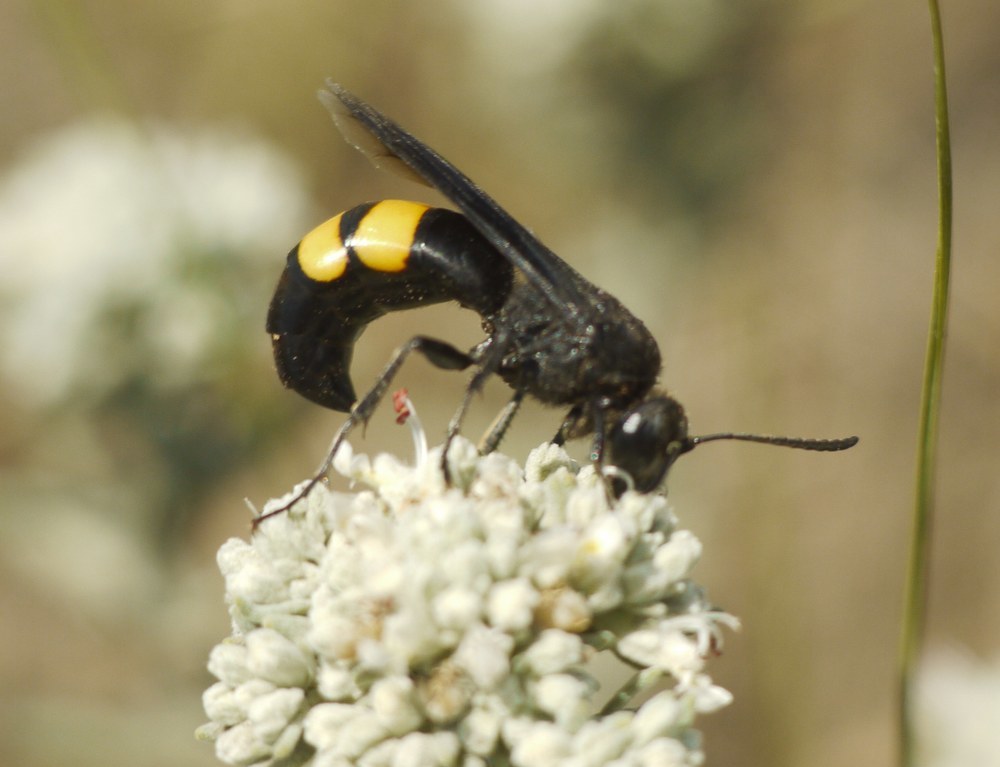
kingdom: Animalia
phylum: Arthropoda
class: Insecta
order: Hymenoptera
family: Crabronidae
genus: Stizoides
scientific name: Stizoides tridentatus
